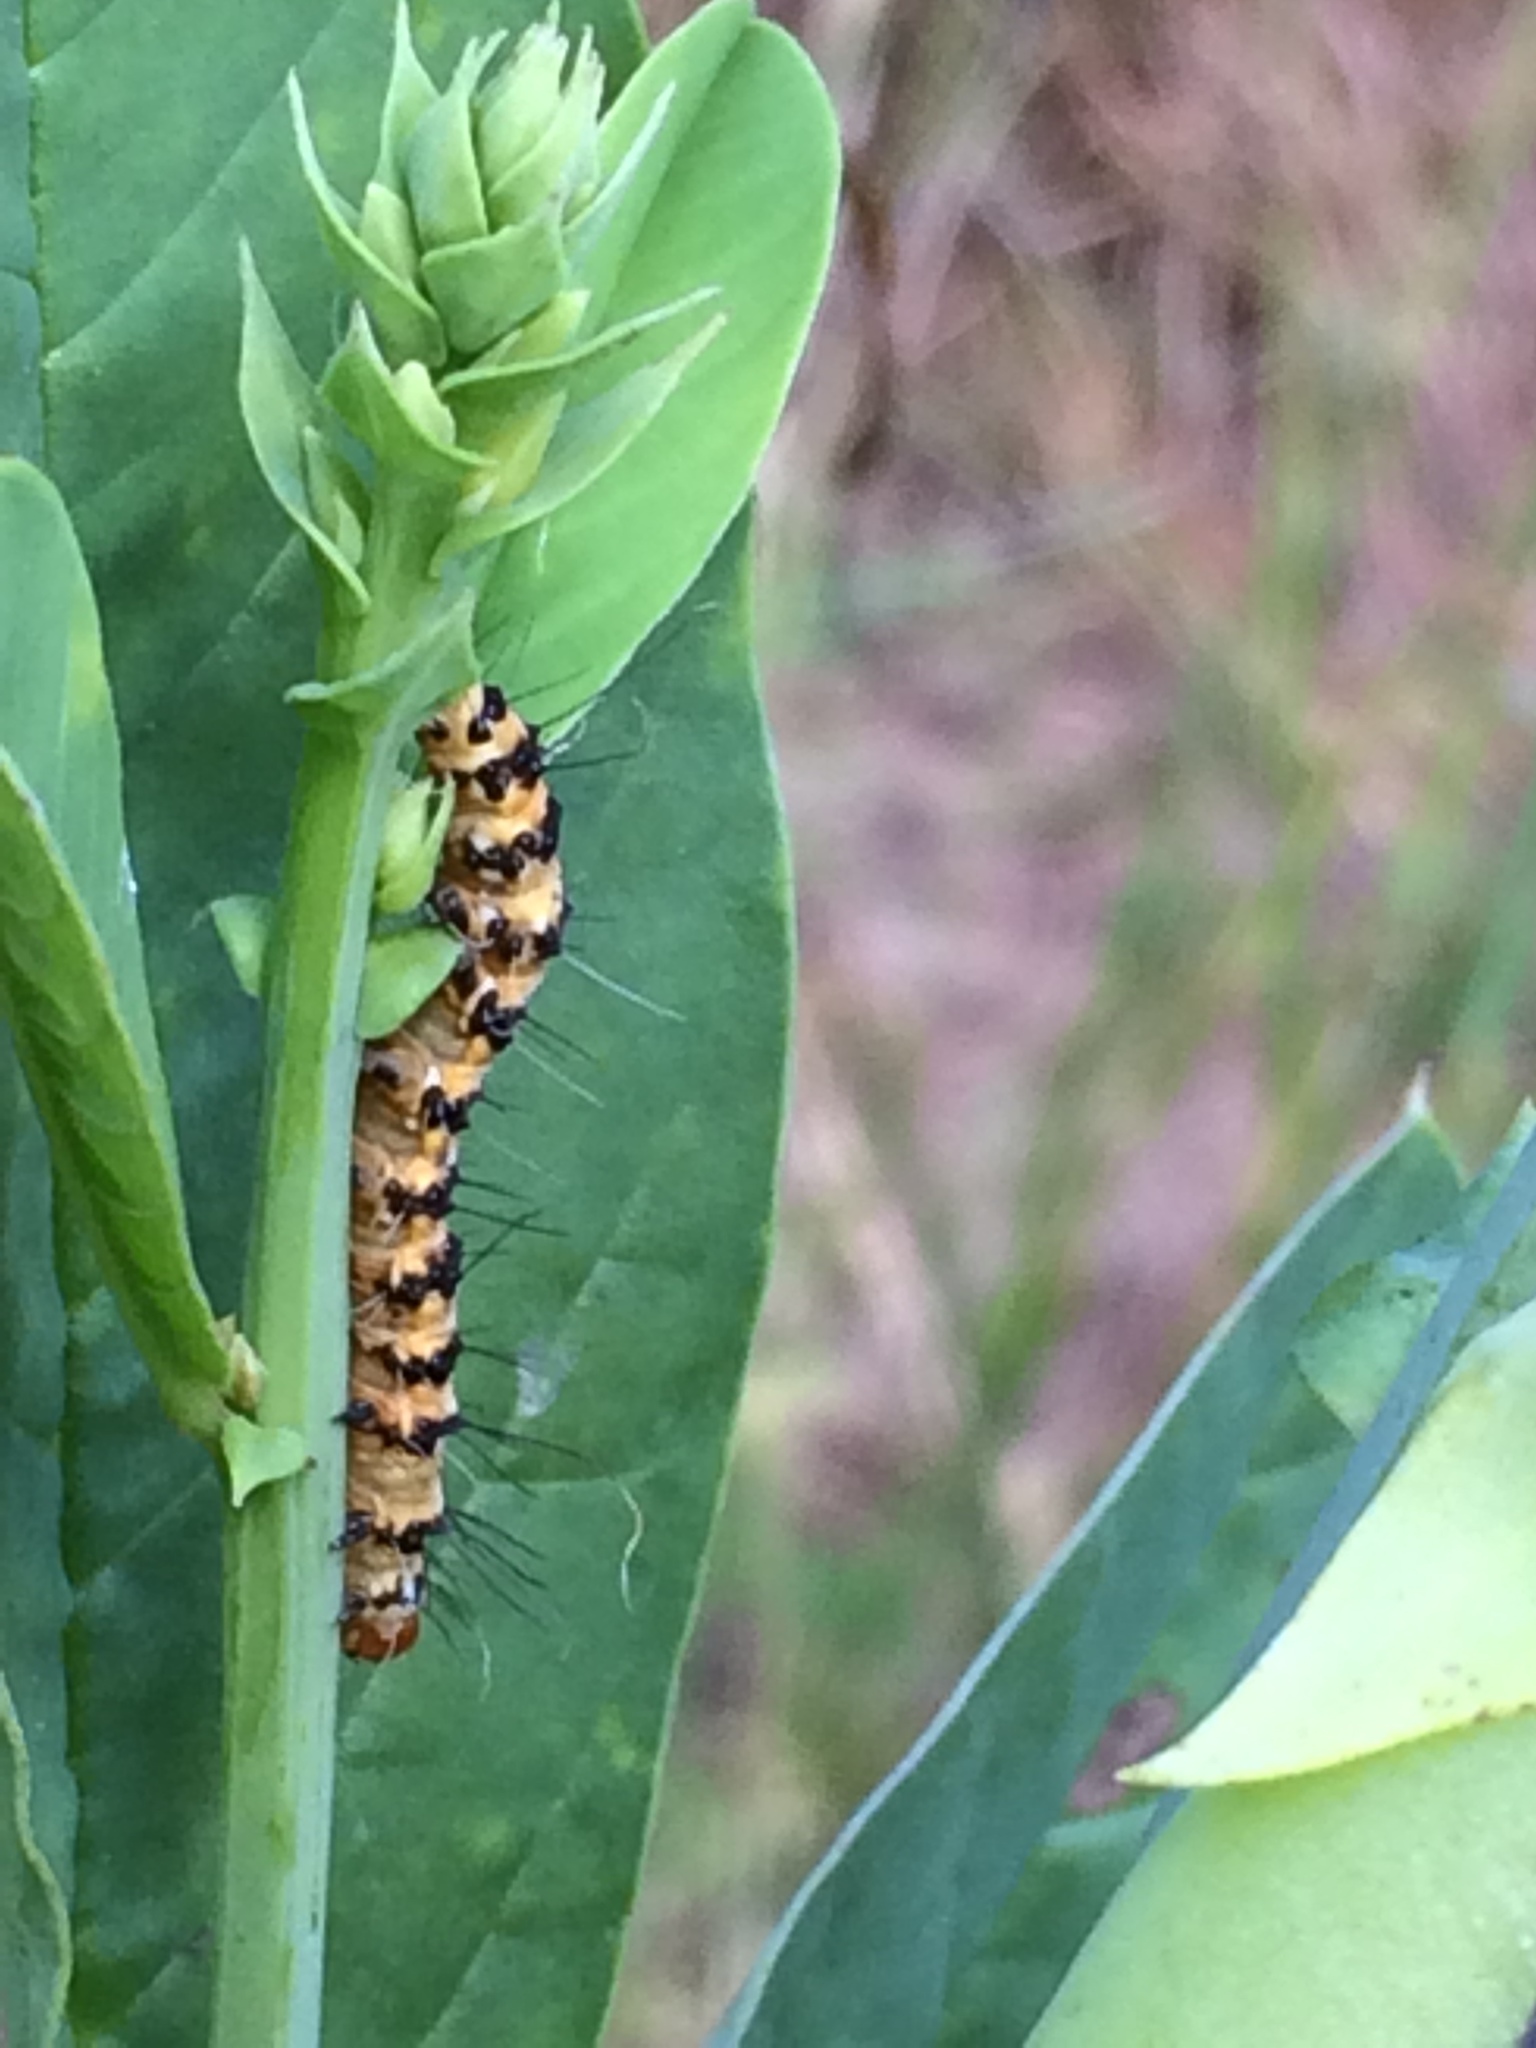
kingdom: Animalia
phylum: Arthropoda
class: Insecta
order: Lepidoptera
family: Erebidae
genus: Utetheisa
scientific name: Utetheisa ornatrix
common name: Beautiful utetheisa
